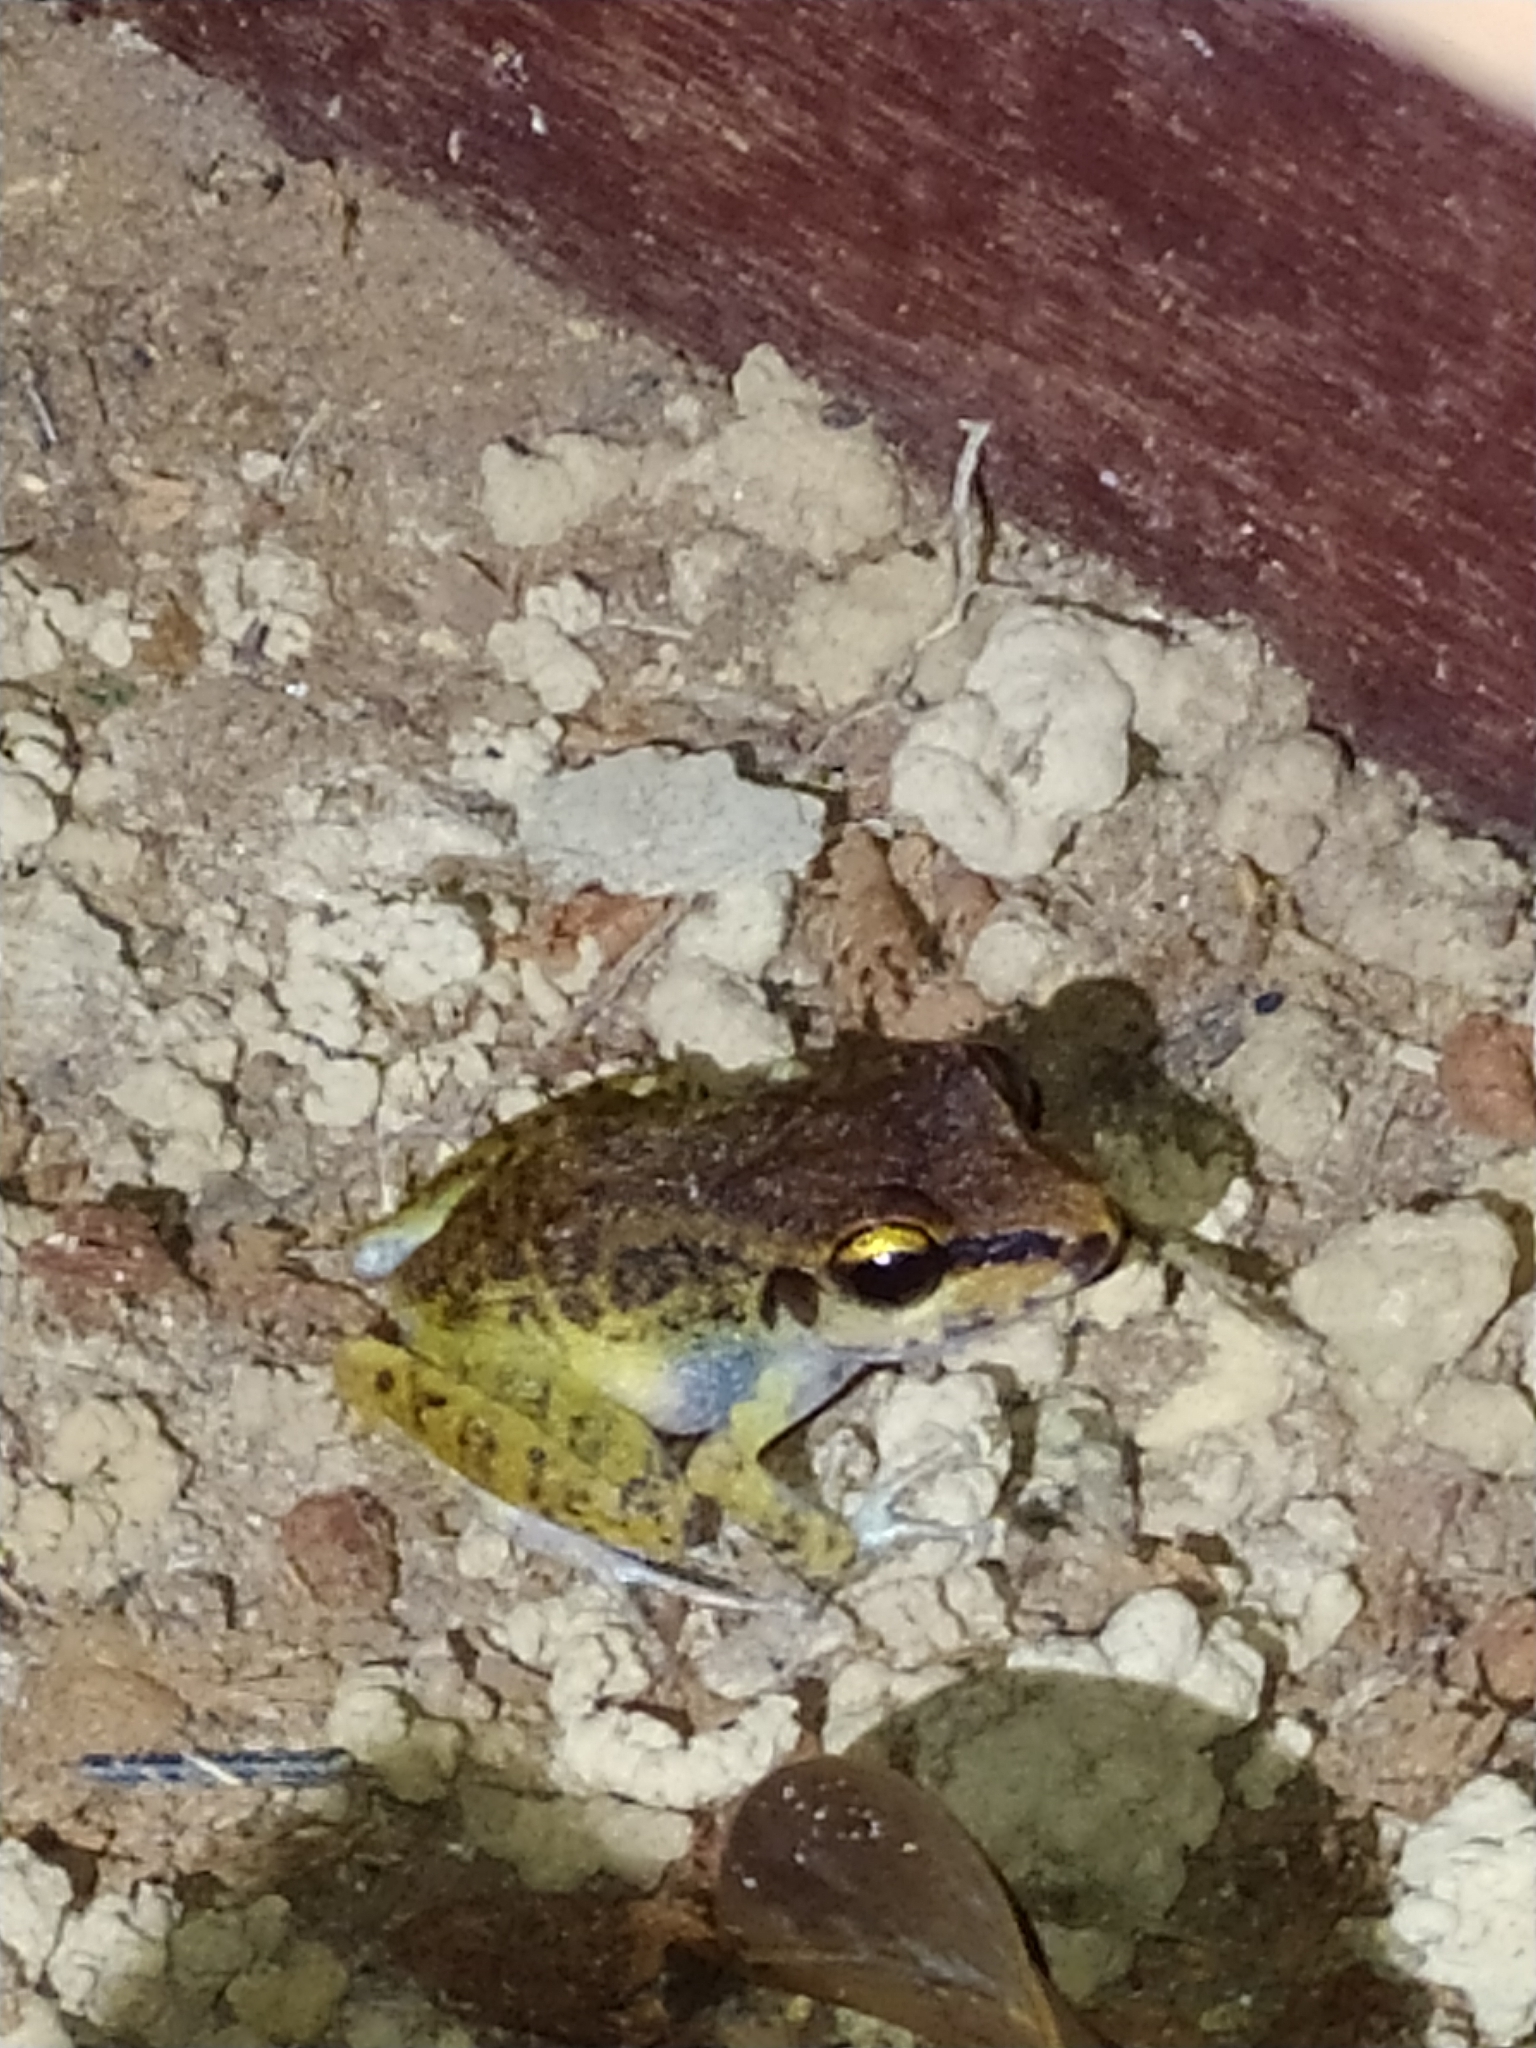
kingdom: Animalia
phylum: Chordata
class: Amphibia
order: Anura
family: Craugastoridae
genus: Pristimantis
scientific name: Pristimantis zeuctotylus
